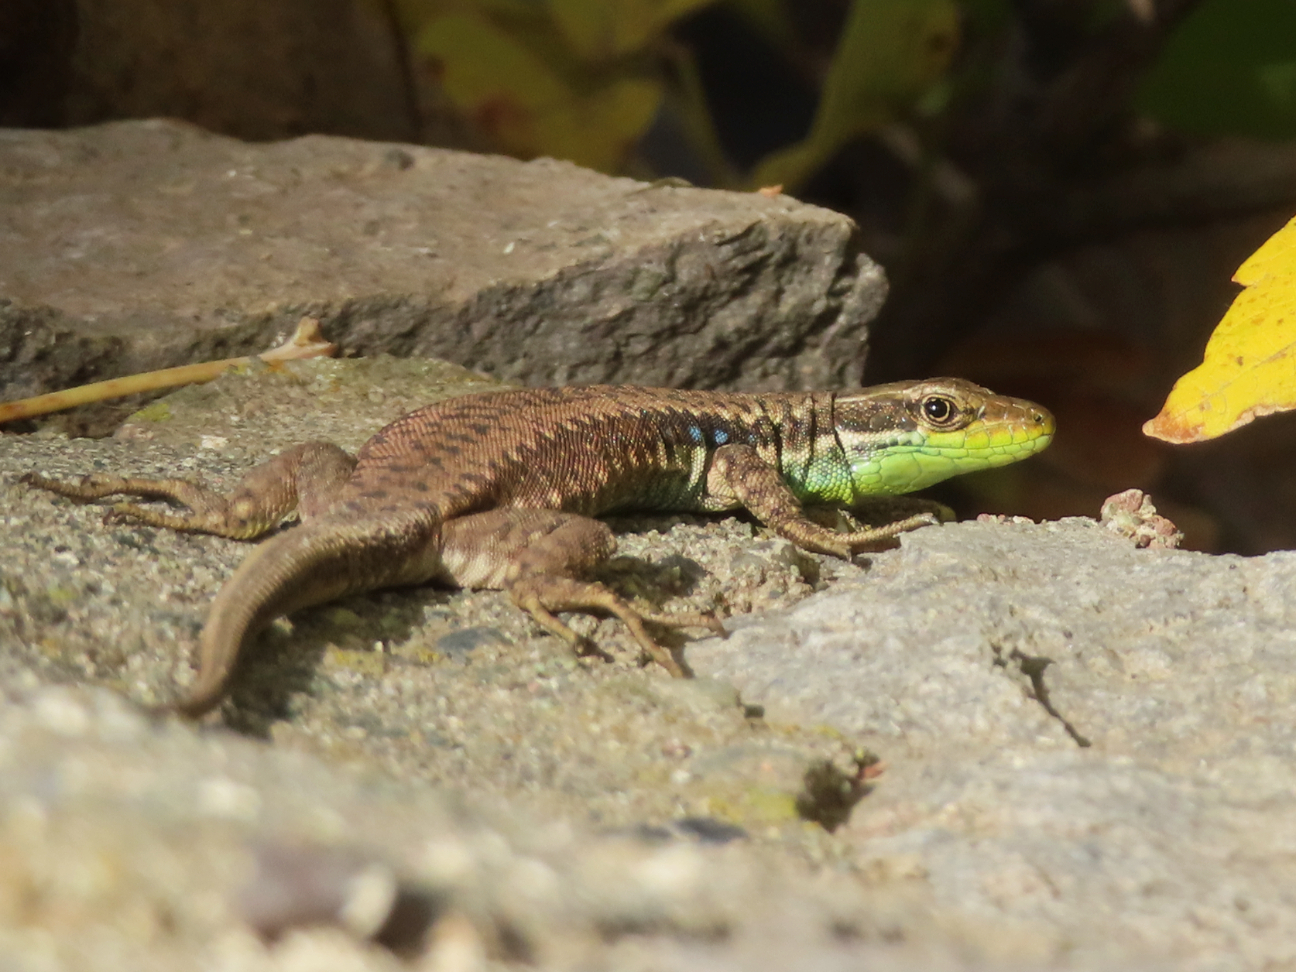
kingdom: Animalia
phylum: Chordata
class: Squamata
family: Lacertidae
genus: Darevskia
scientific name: Darevskia raddei
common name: Radde's lizard
